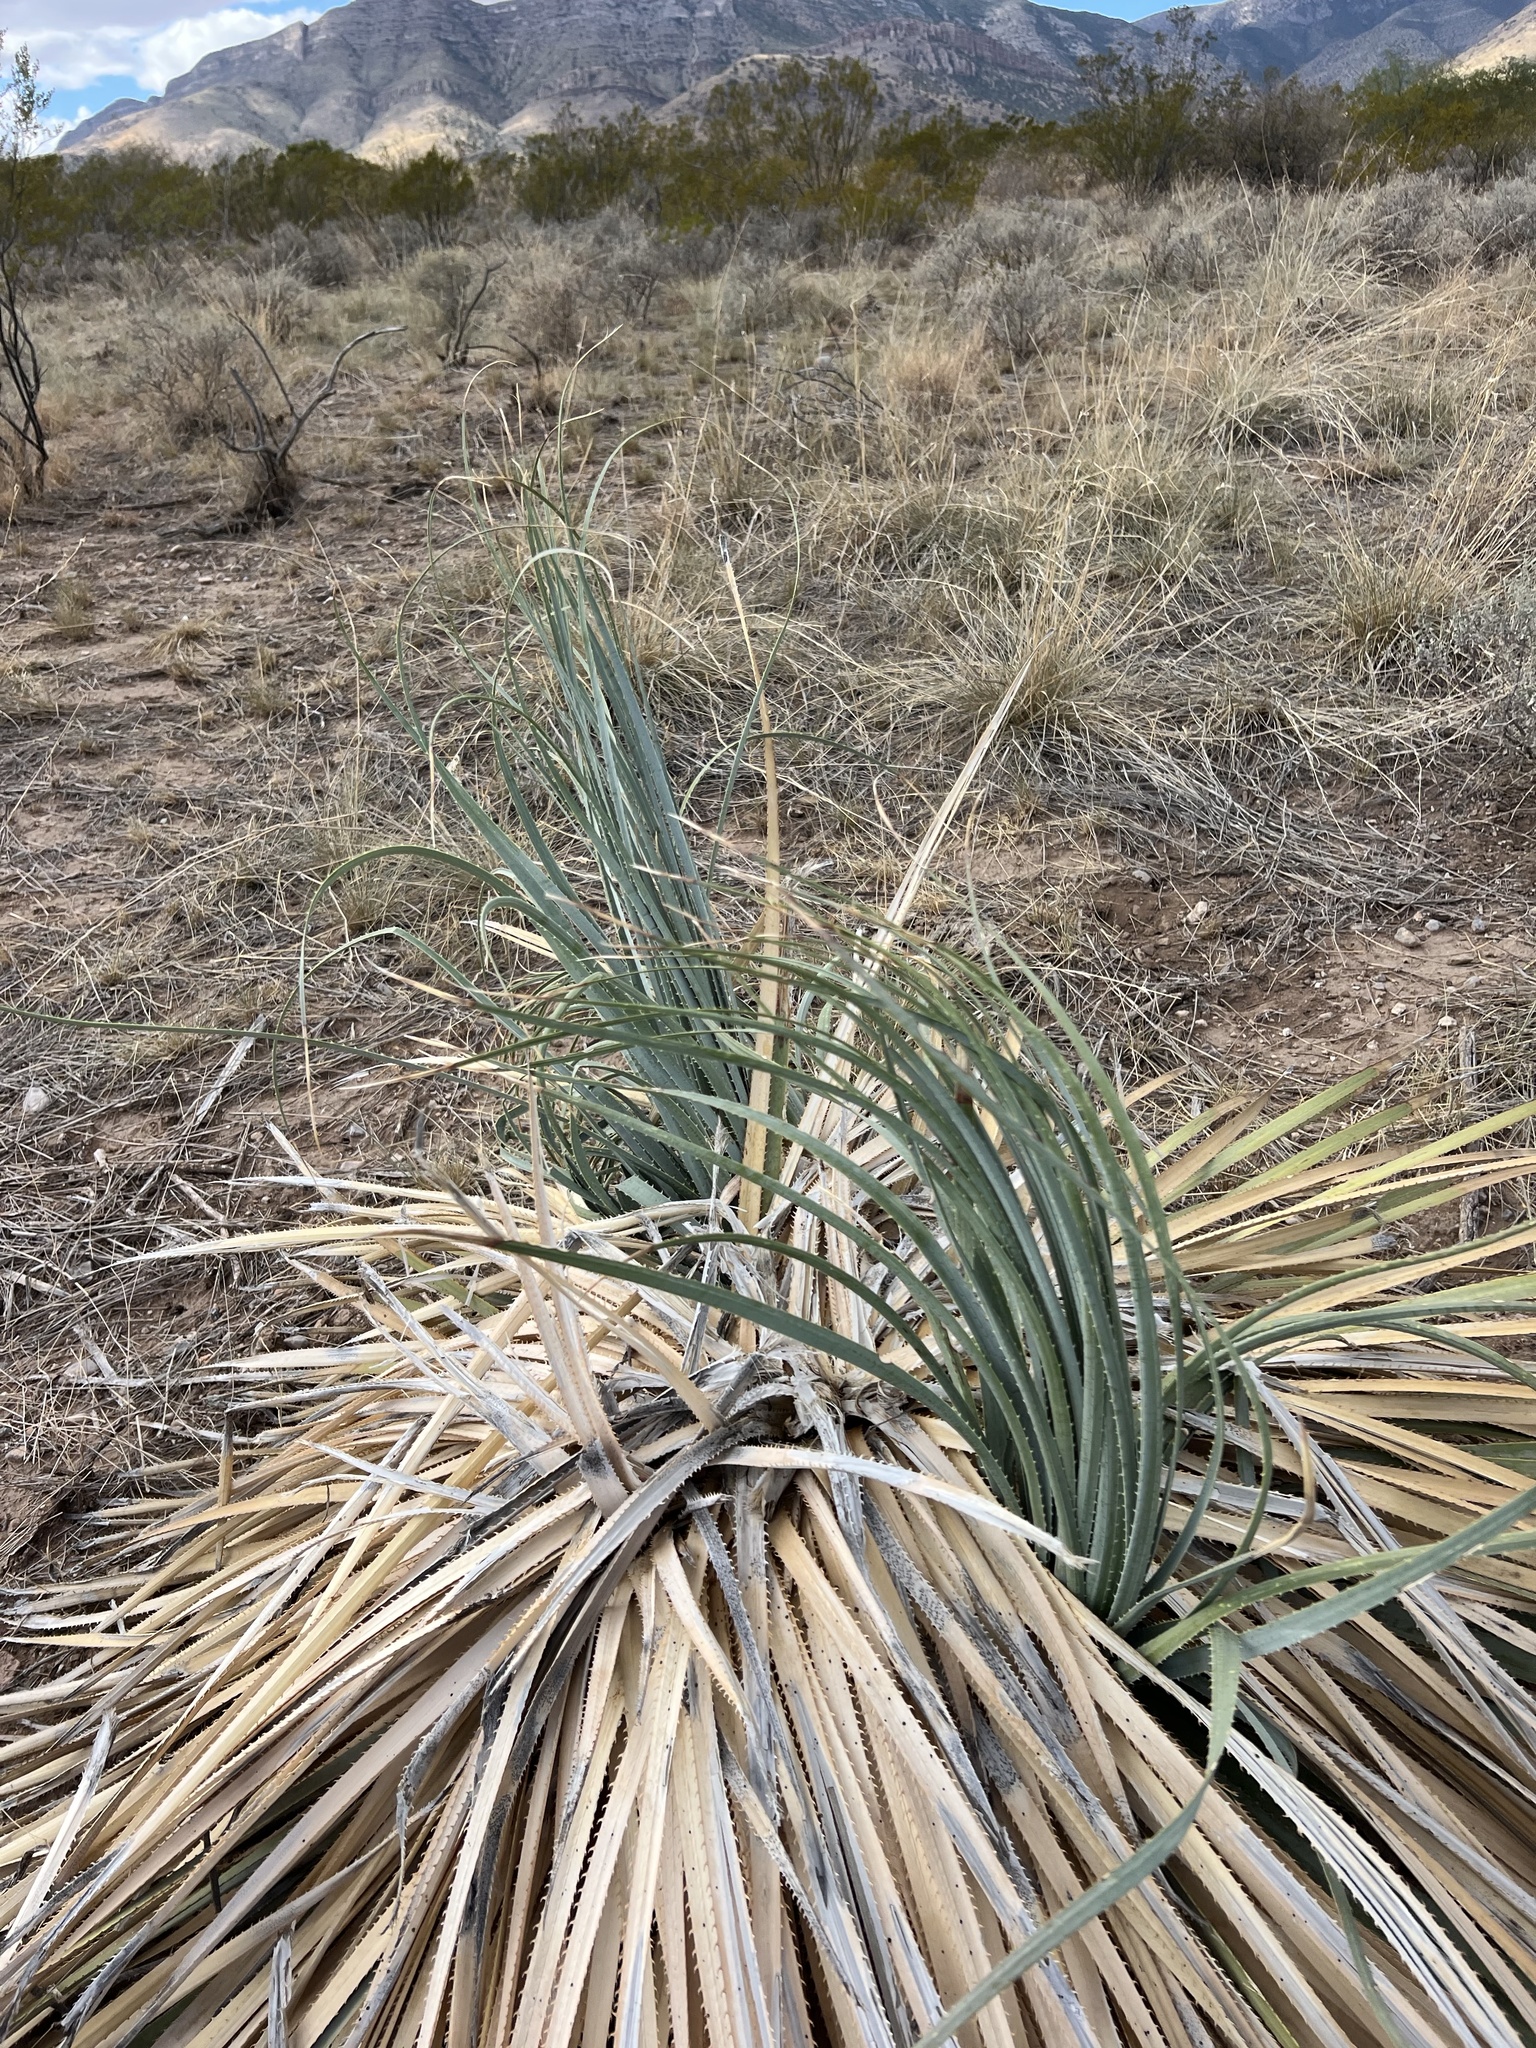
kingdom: Plantae
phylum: Tracheophyta
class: Liliopsida
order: Asparagales
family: Asparagaceae
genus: Dasylirion
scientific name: Dasylirion wheeleri
